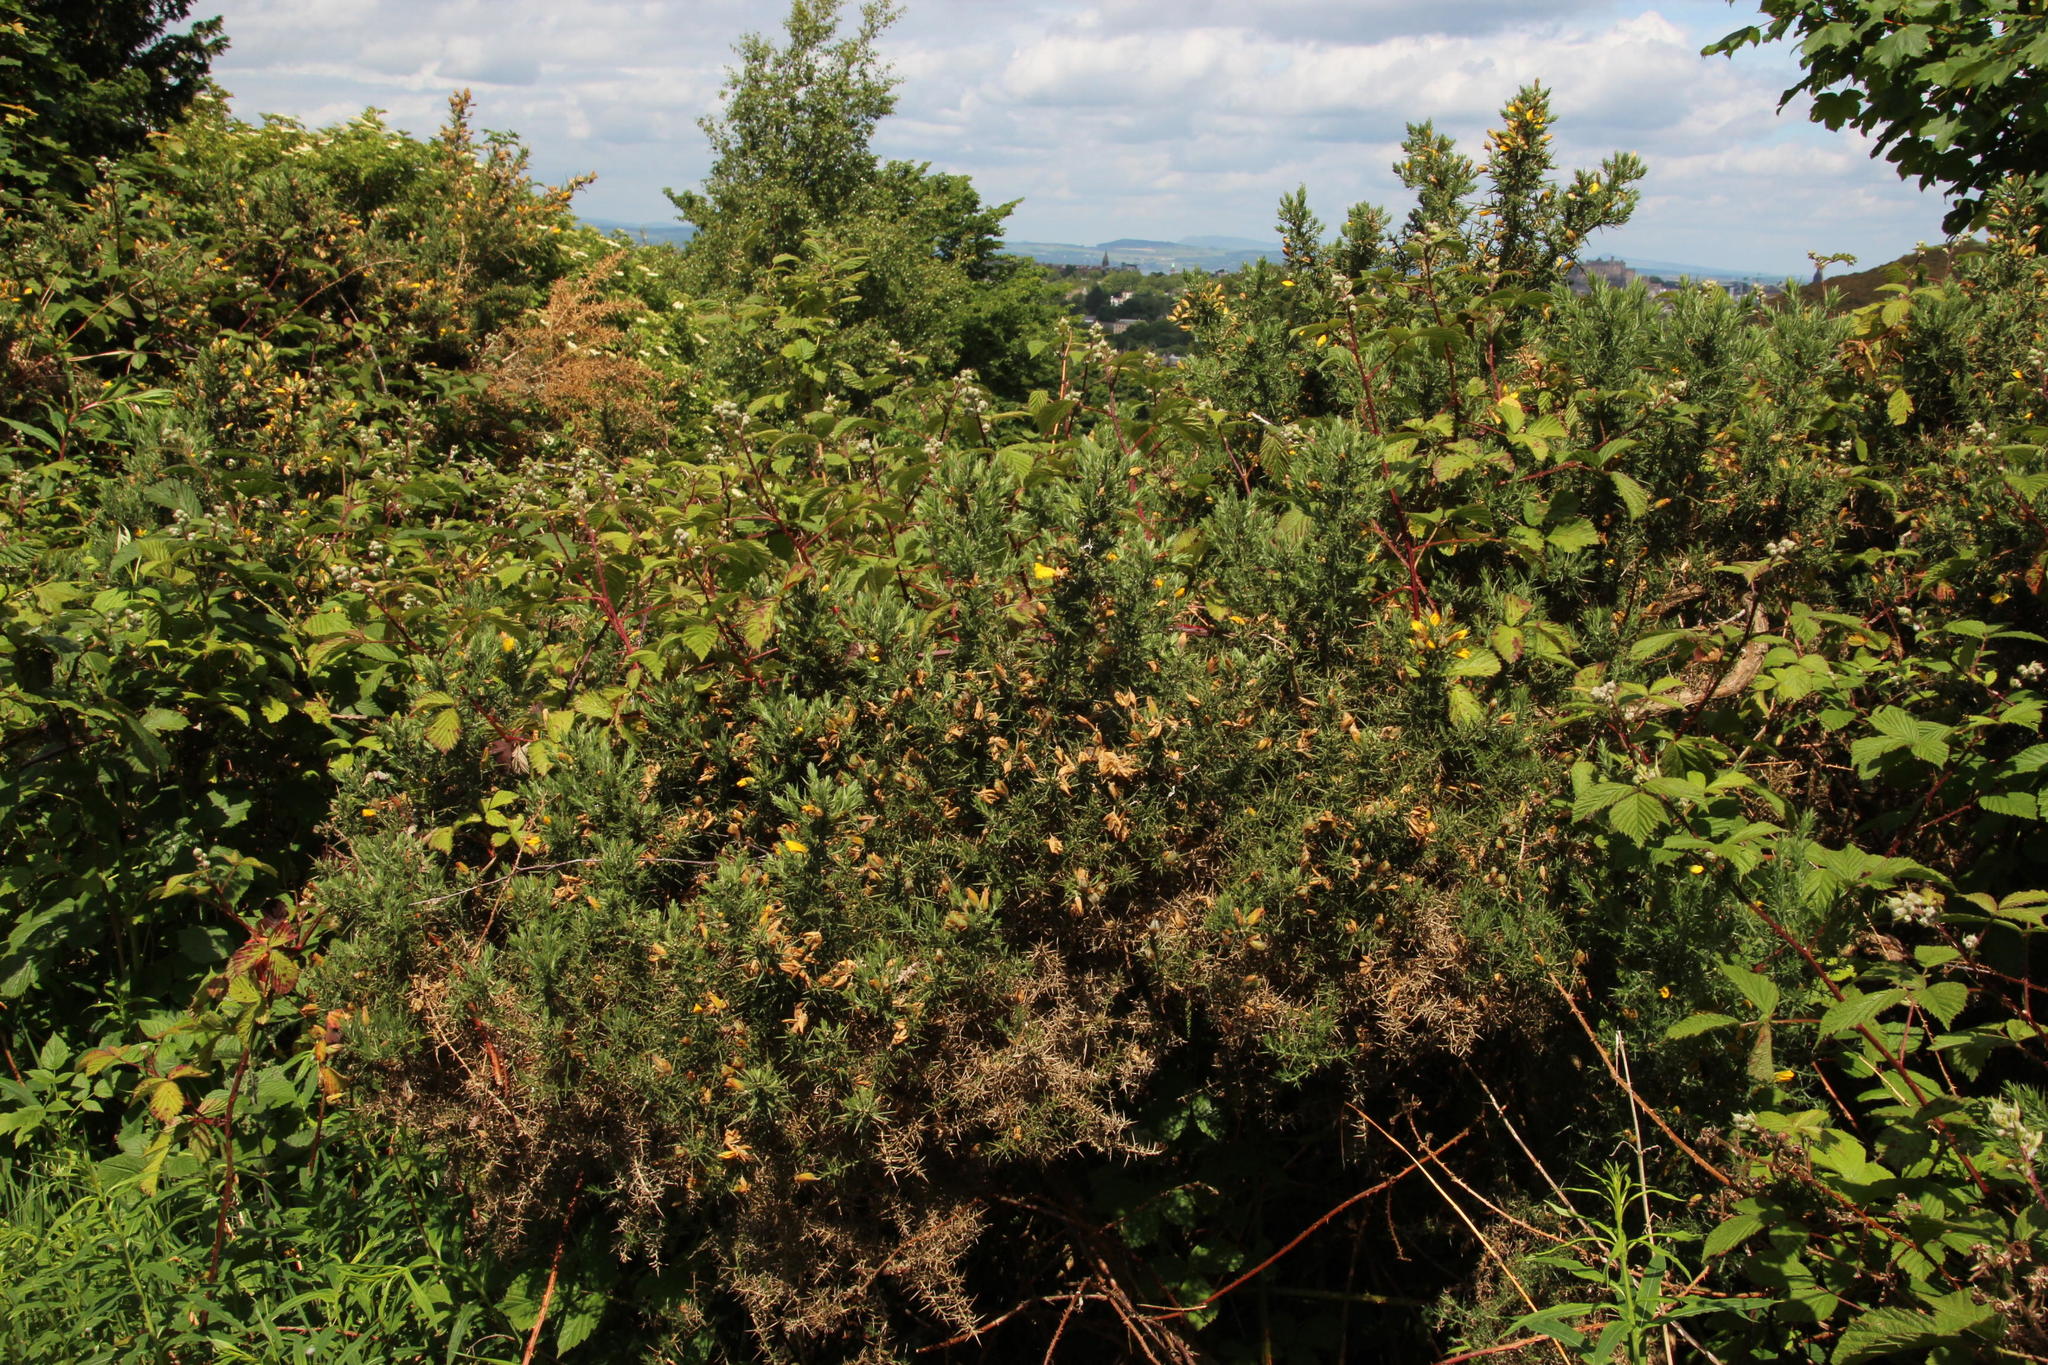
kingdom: Plantae
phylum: Tracheophyta
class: Magnoliopsida
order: Fabales
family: Fabaceae
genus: Ulex
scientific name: Ulex europaeus
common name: Common gorse
